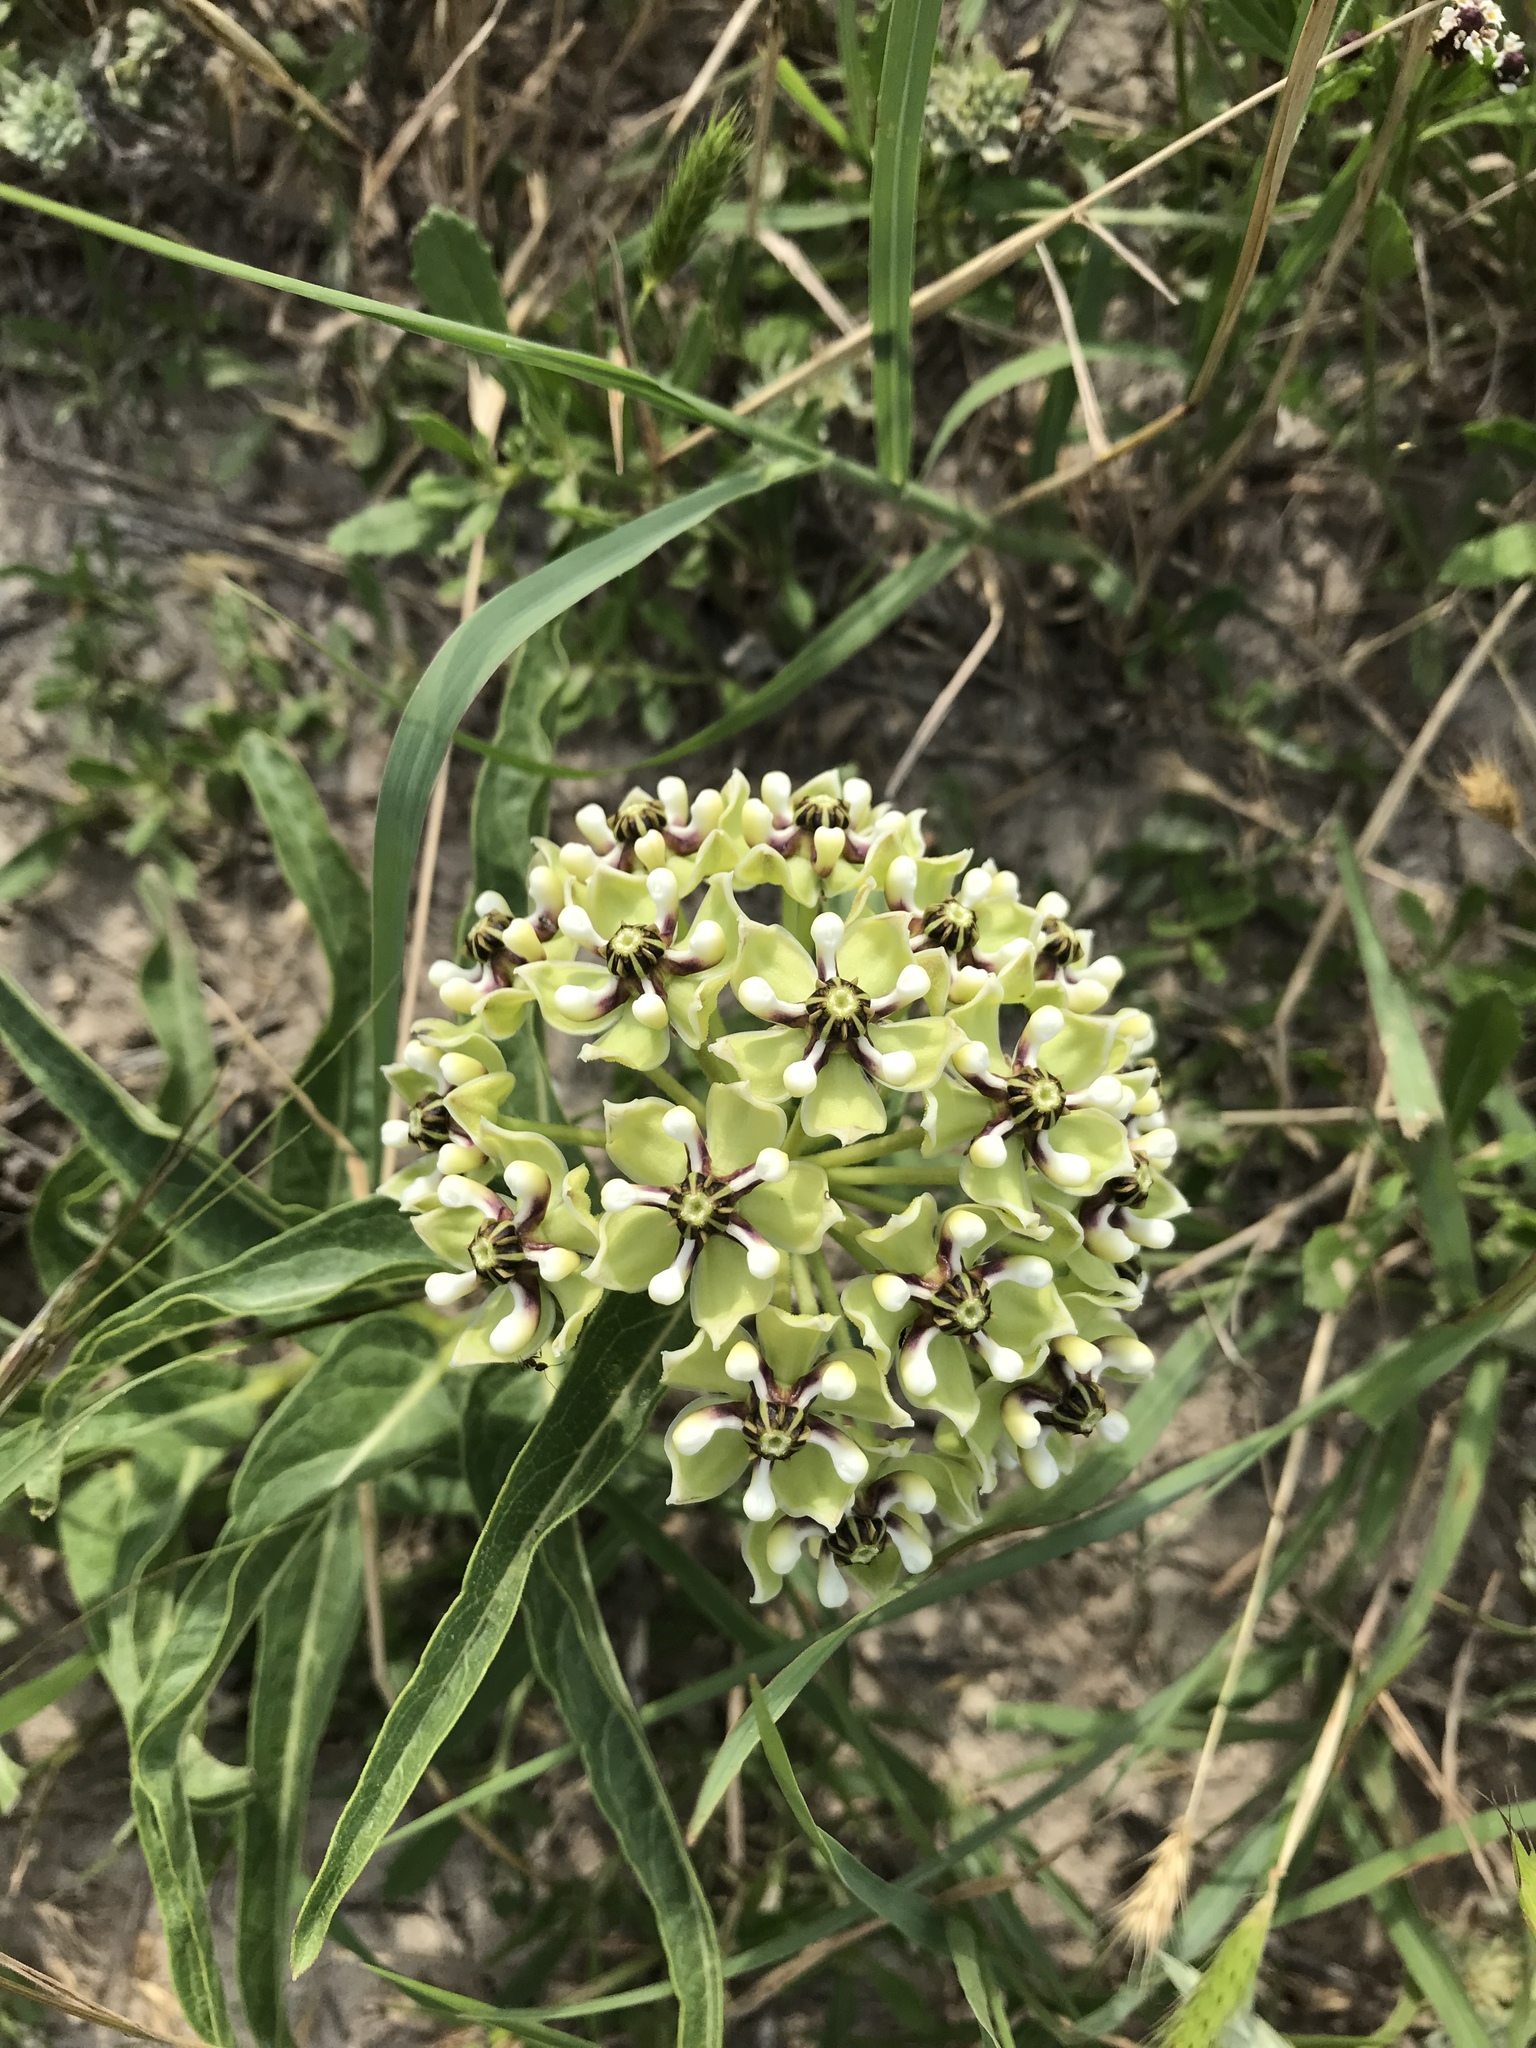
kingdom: Plantae
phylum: Tracheophyta
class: Magnoliopsida
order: Gentianales
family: Apocynaceae
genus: Asclepias
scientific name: Asclepias asperula
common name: Antelope horns
